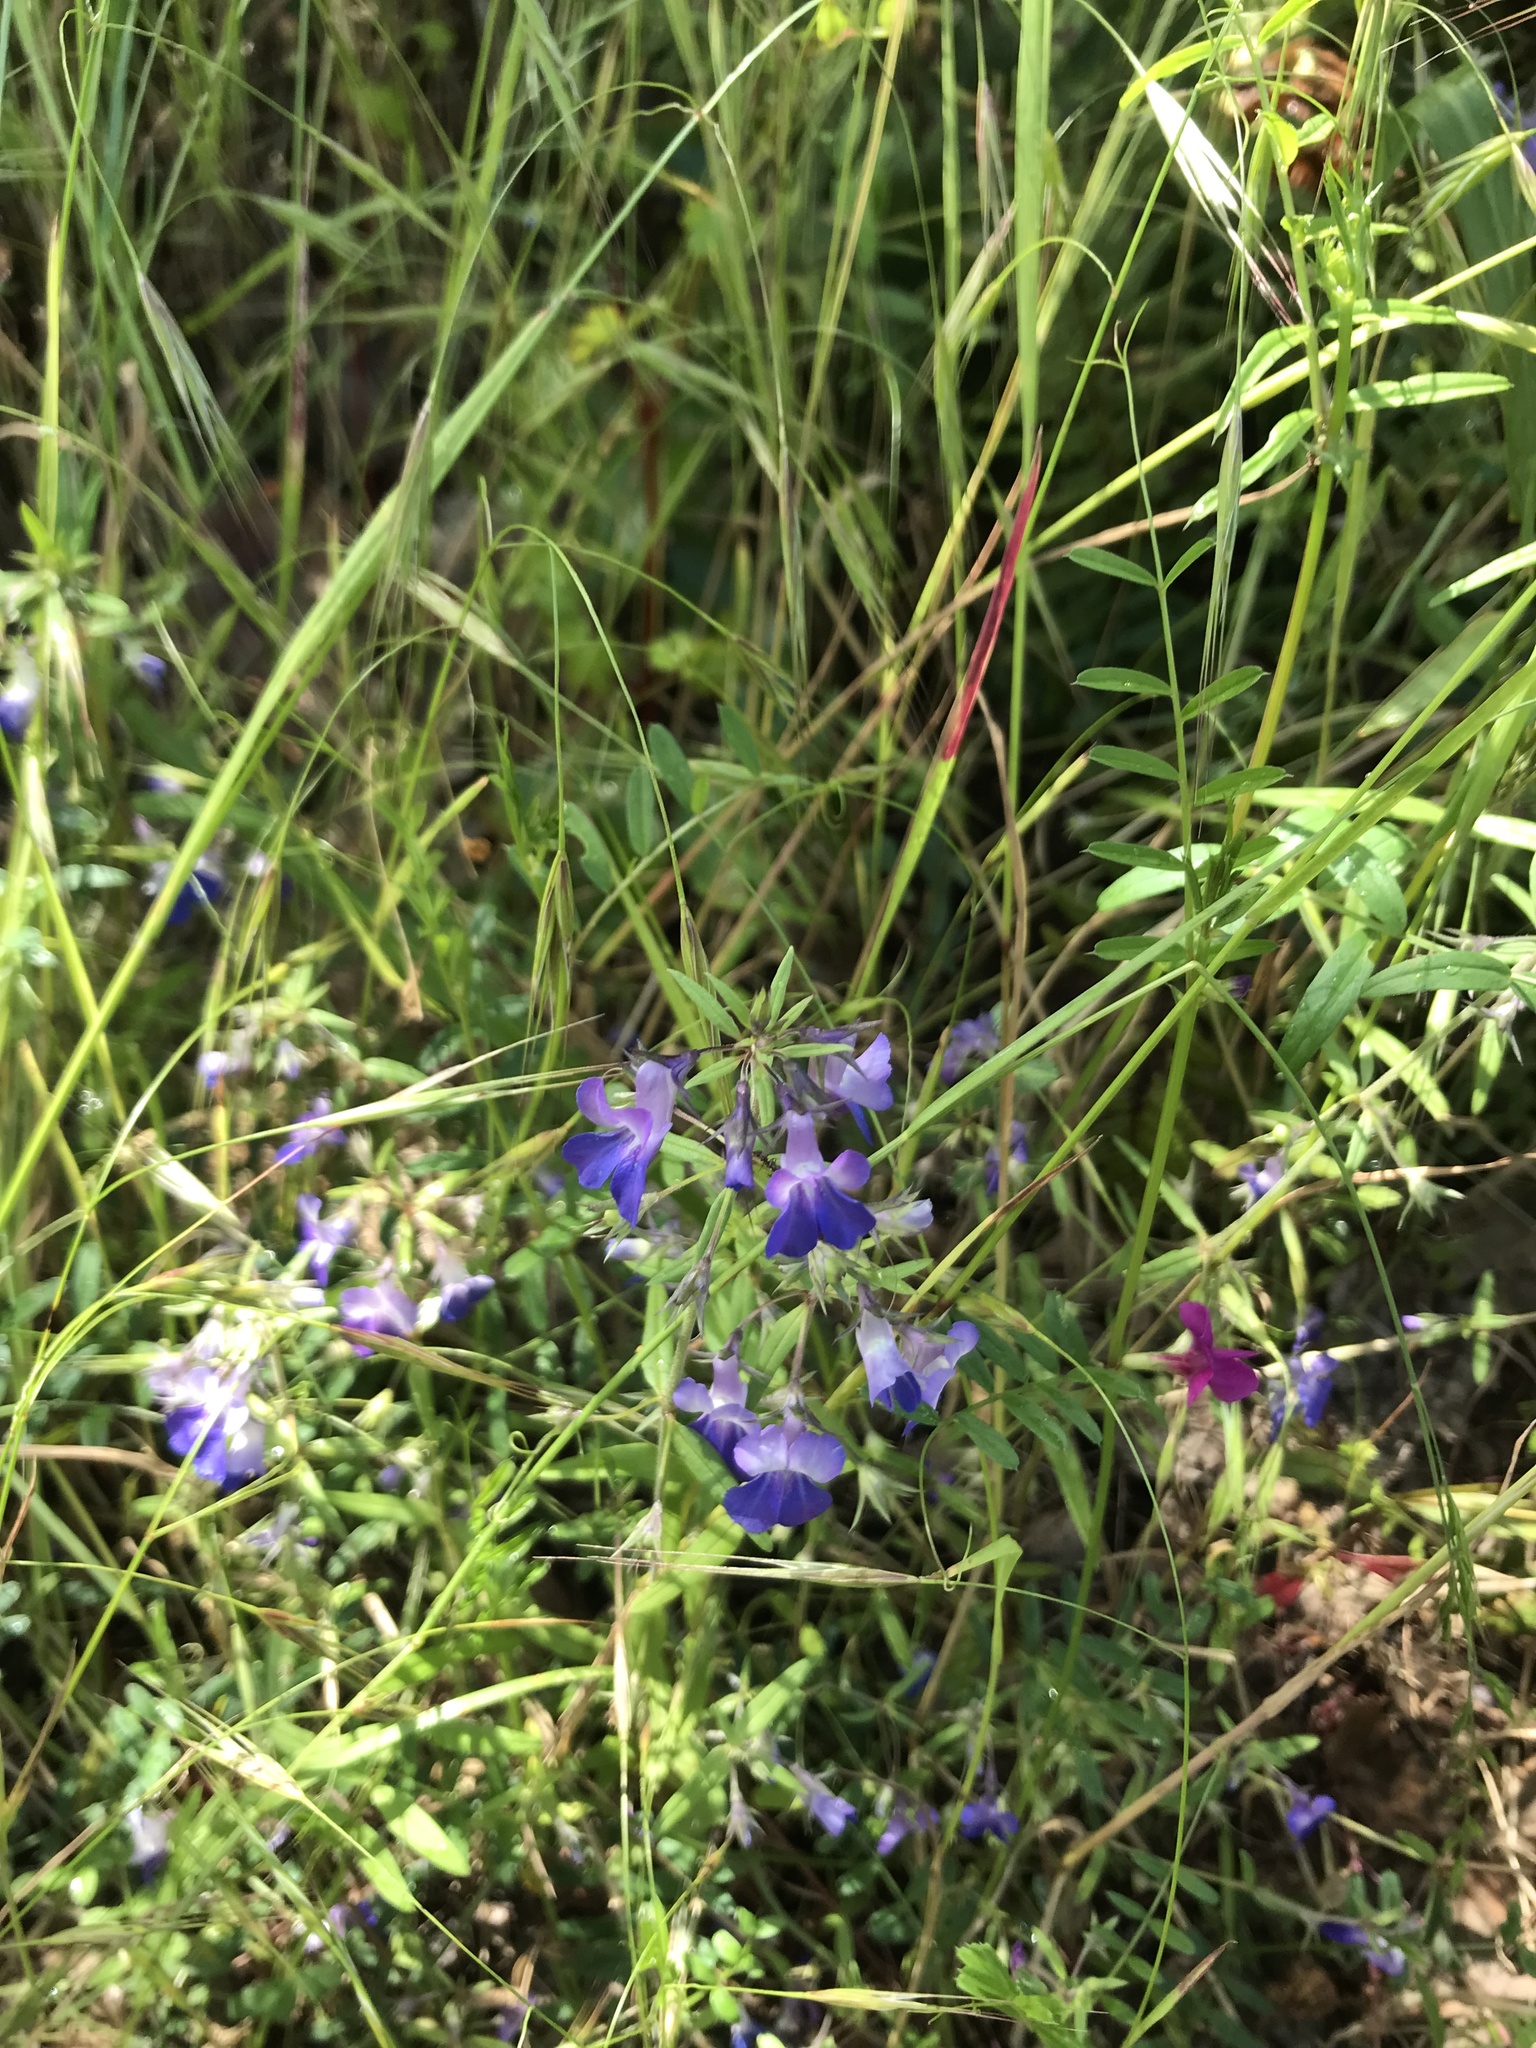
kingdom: Plantae
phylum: Tracheophyta
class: Magnoliopsida
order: Lamiales
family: Plantaginaceae
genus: Collinsia
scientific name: Collinsia grandiflora
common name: Large-flower blue-eyed-mary
